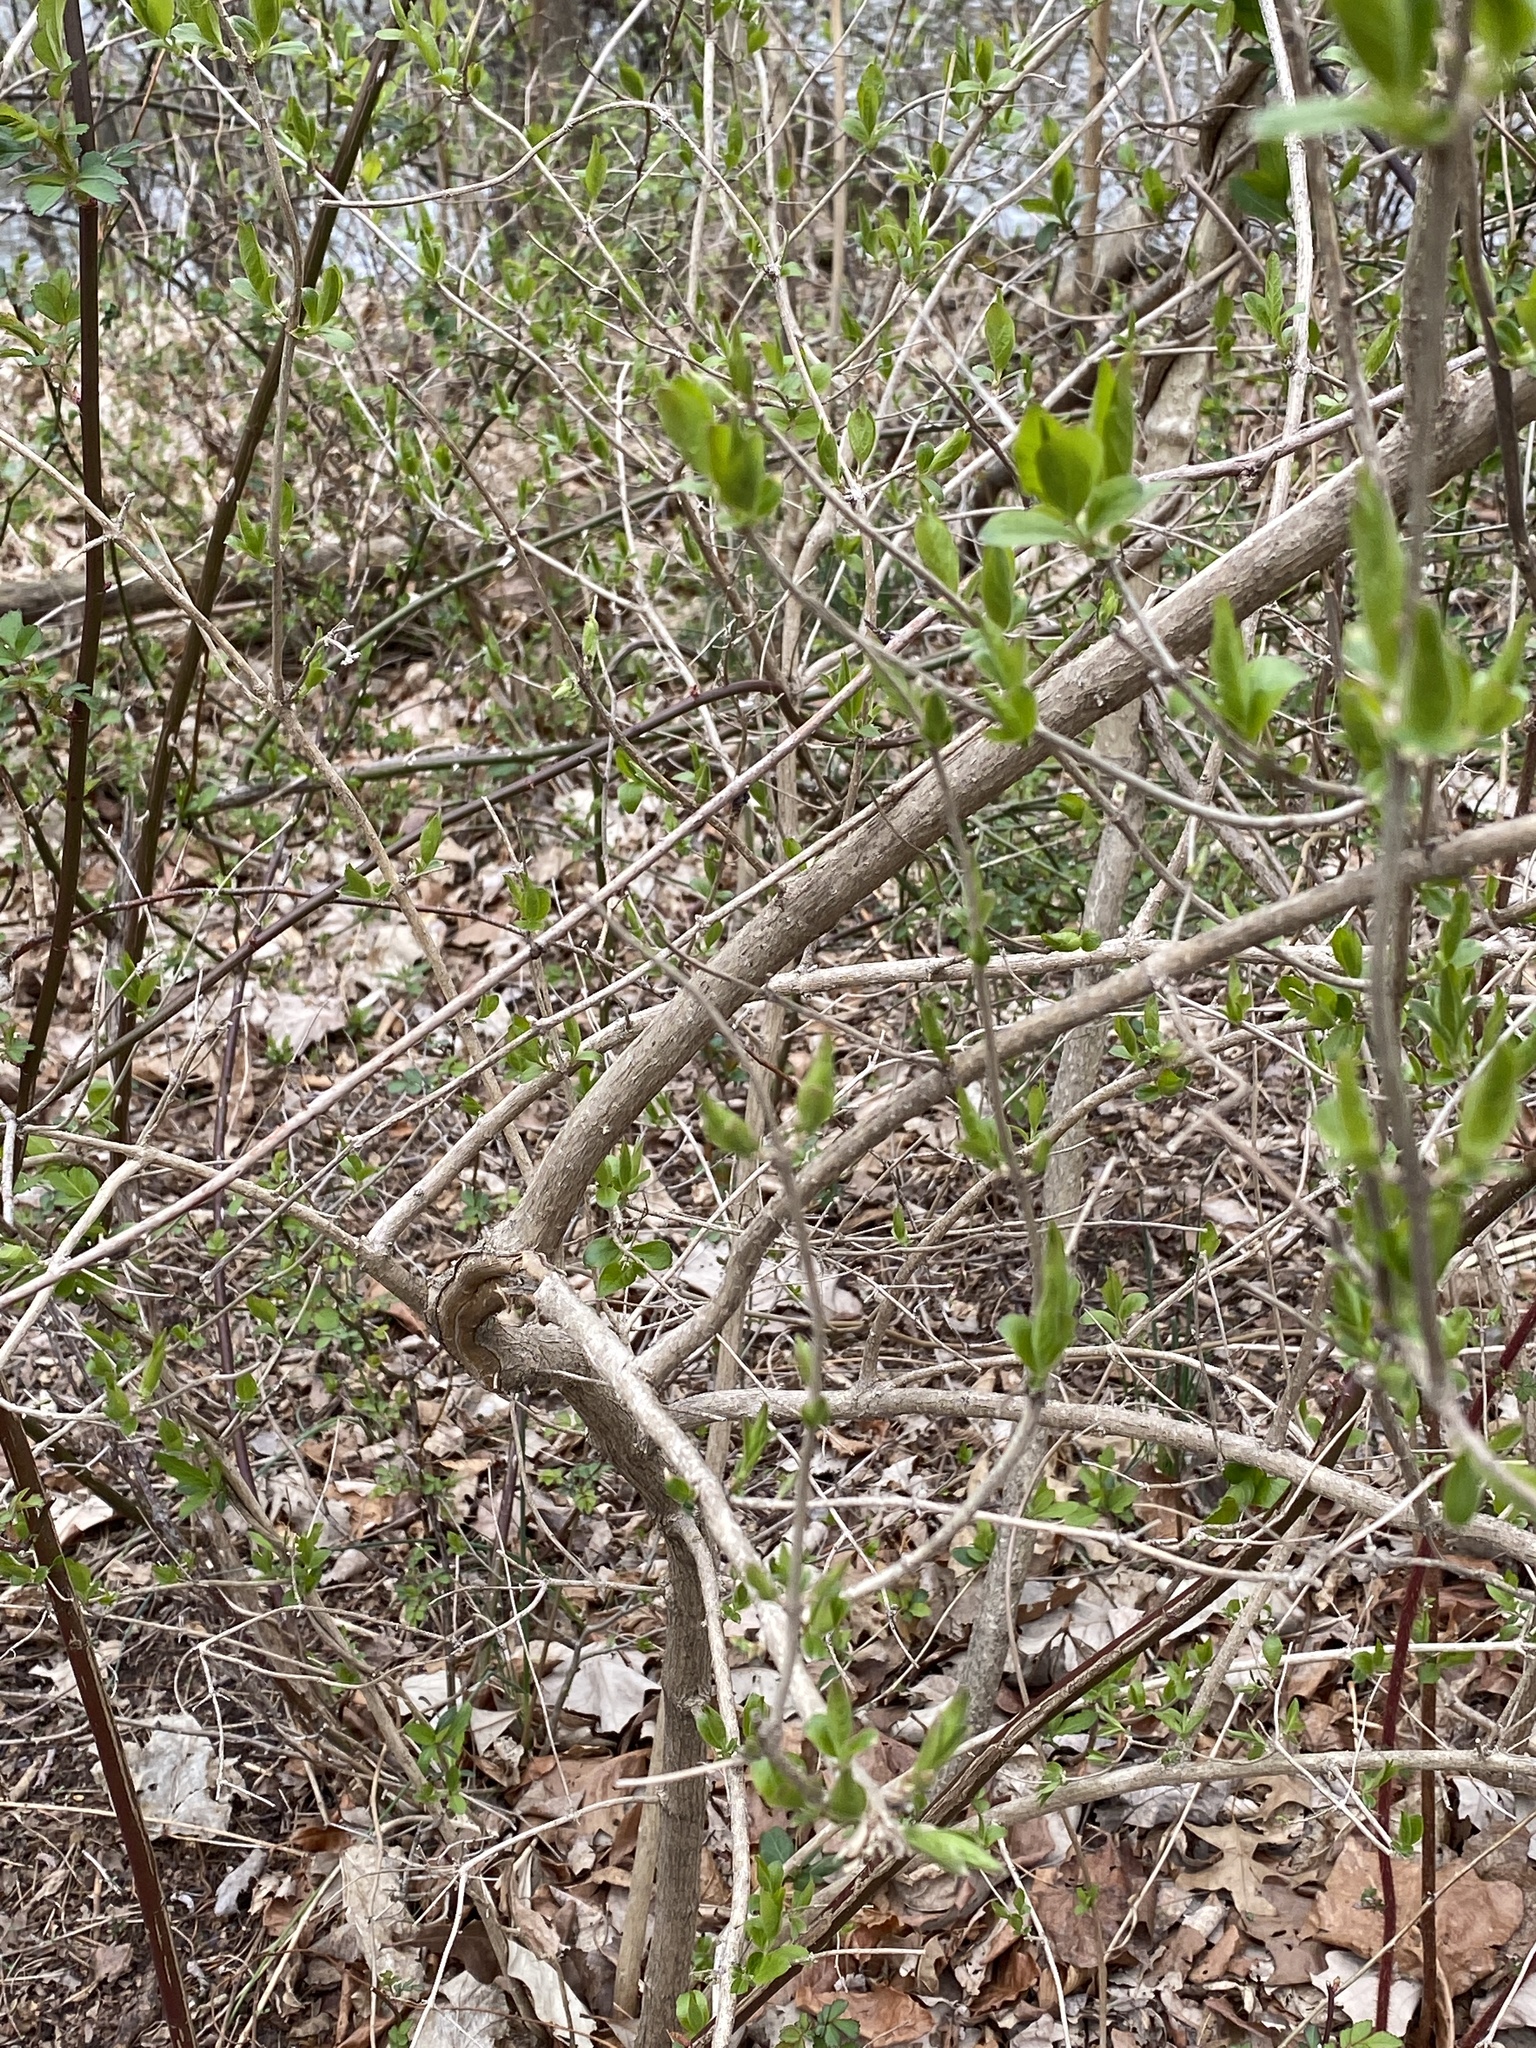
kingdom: Plantae
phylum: Tracheophyta
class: Magnoliopsida
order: Dipsacales
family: Caprifoliaceae
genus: Lonicera
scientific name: Lonicera maackii
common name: Amur honeysuckle
